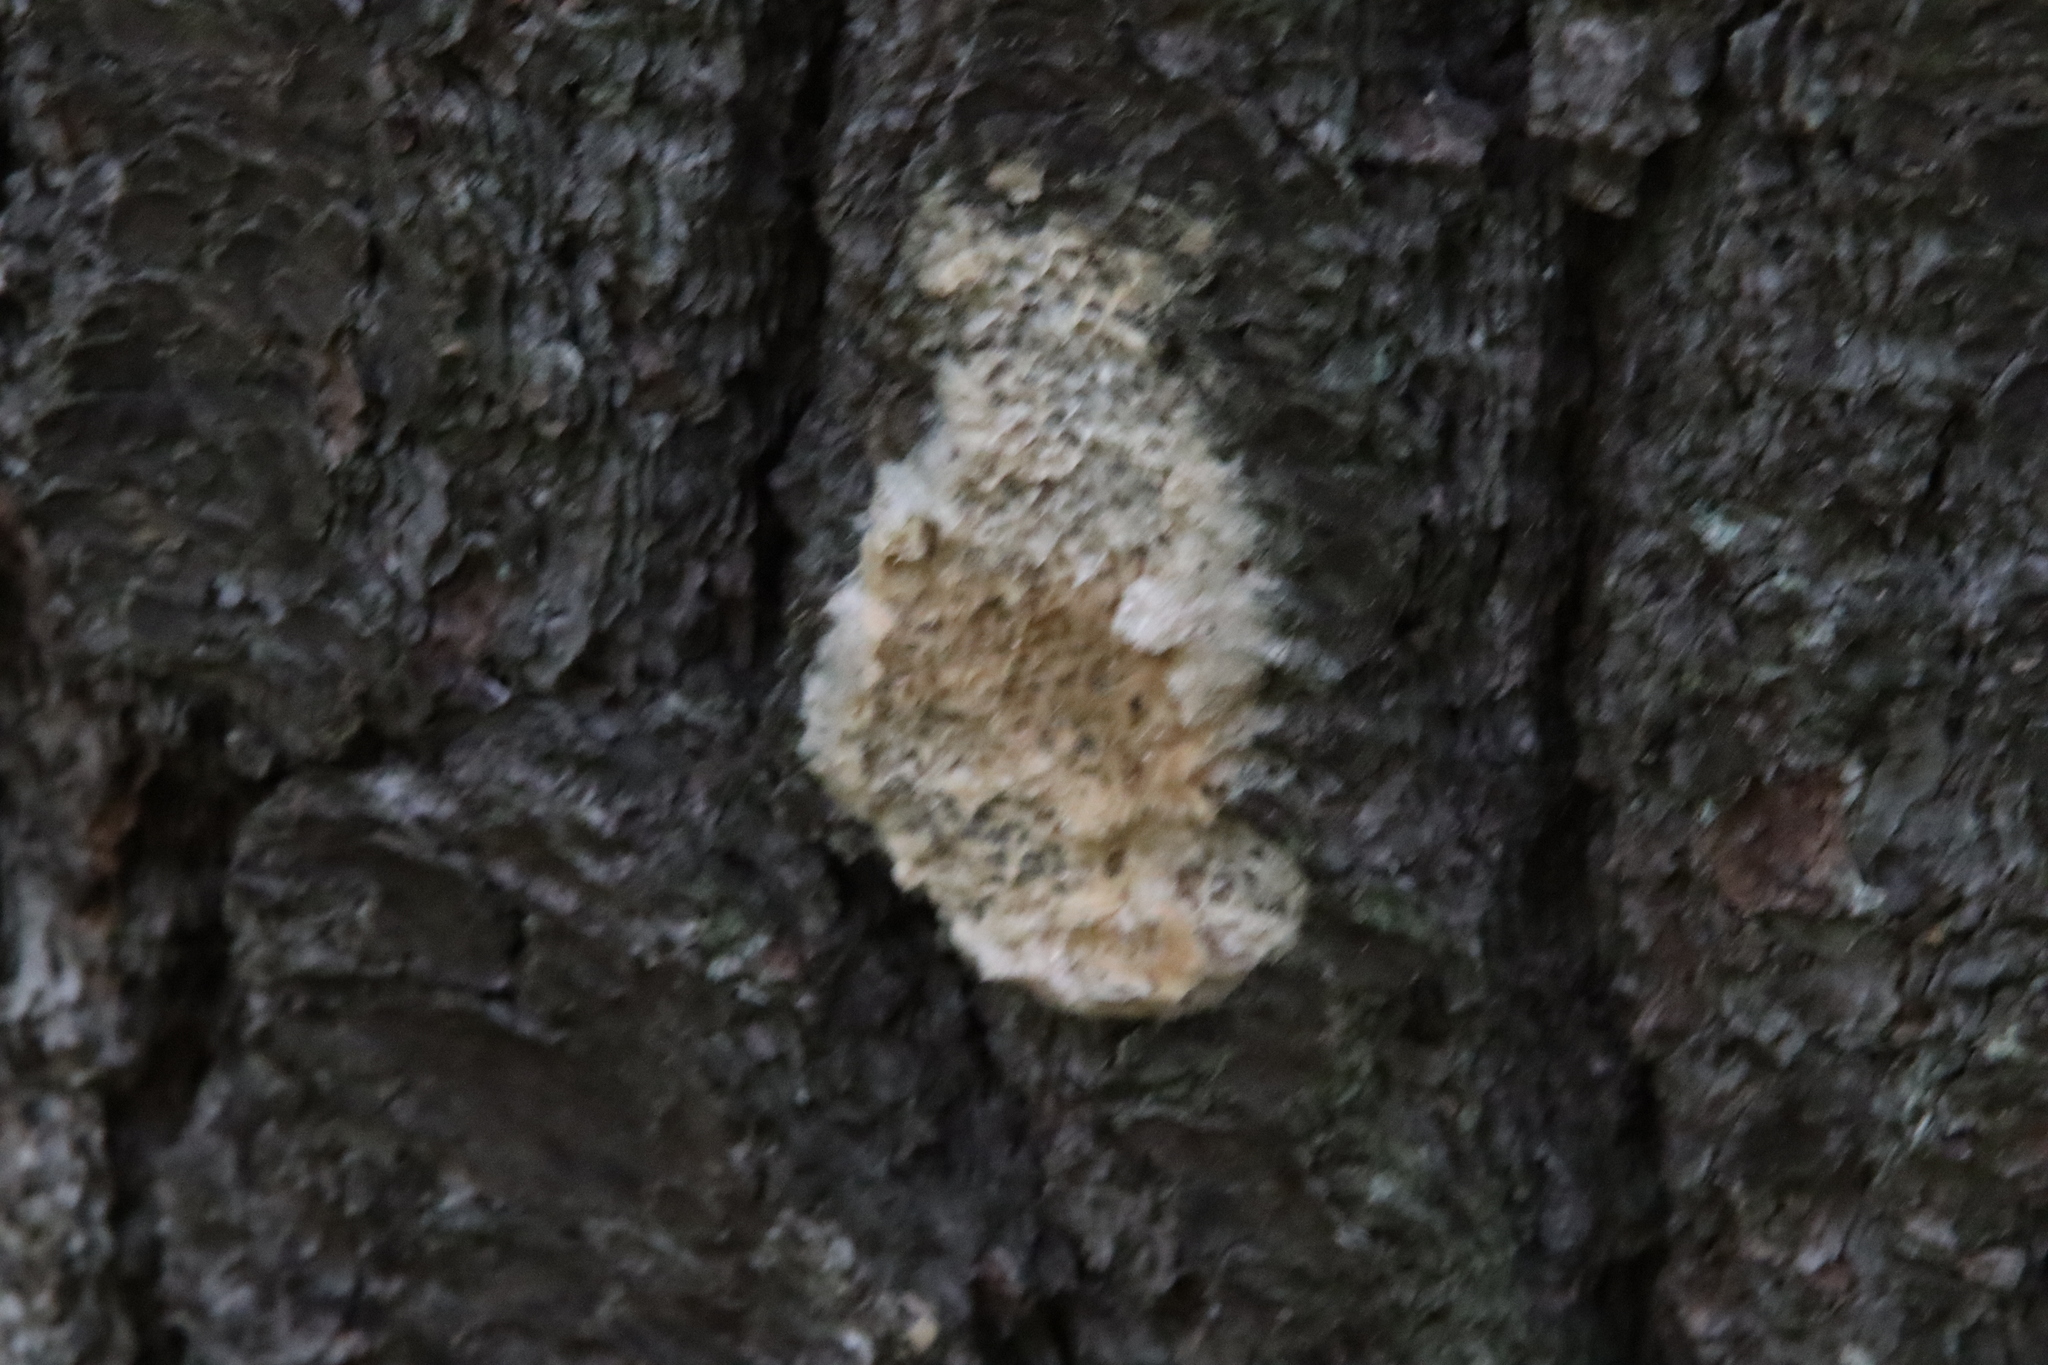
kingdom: Animalia
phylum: Arthropoda
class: Insecta
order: Lepidoptera
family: Erebidae
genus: Lymantria
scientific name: Lymantria dispar
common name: Gypsy moth
